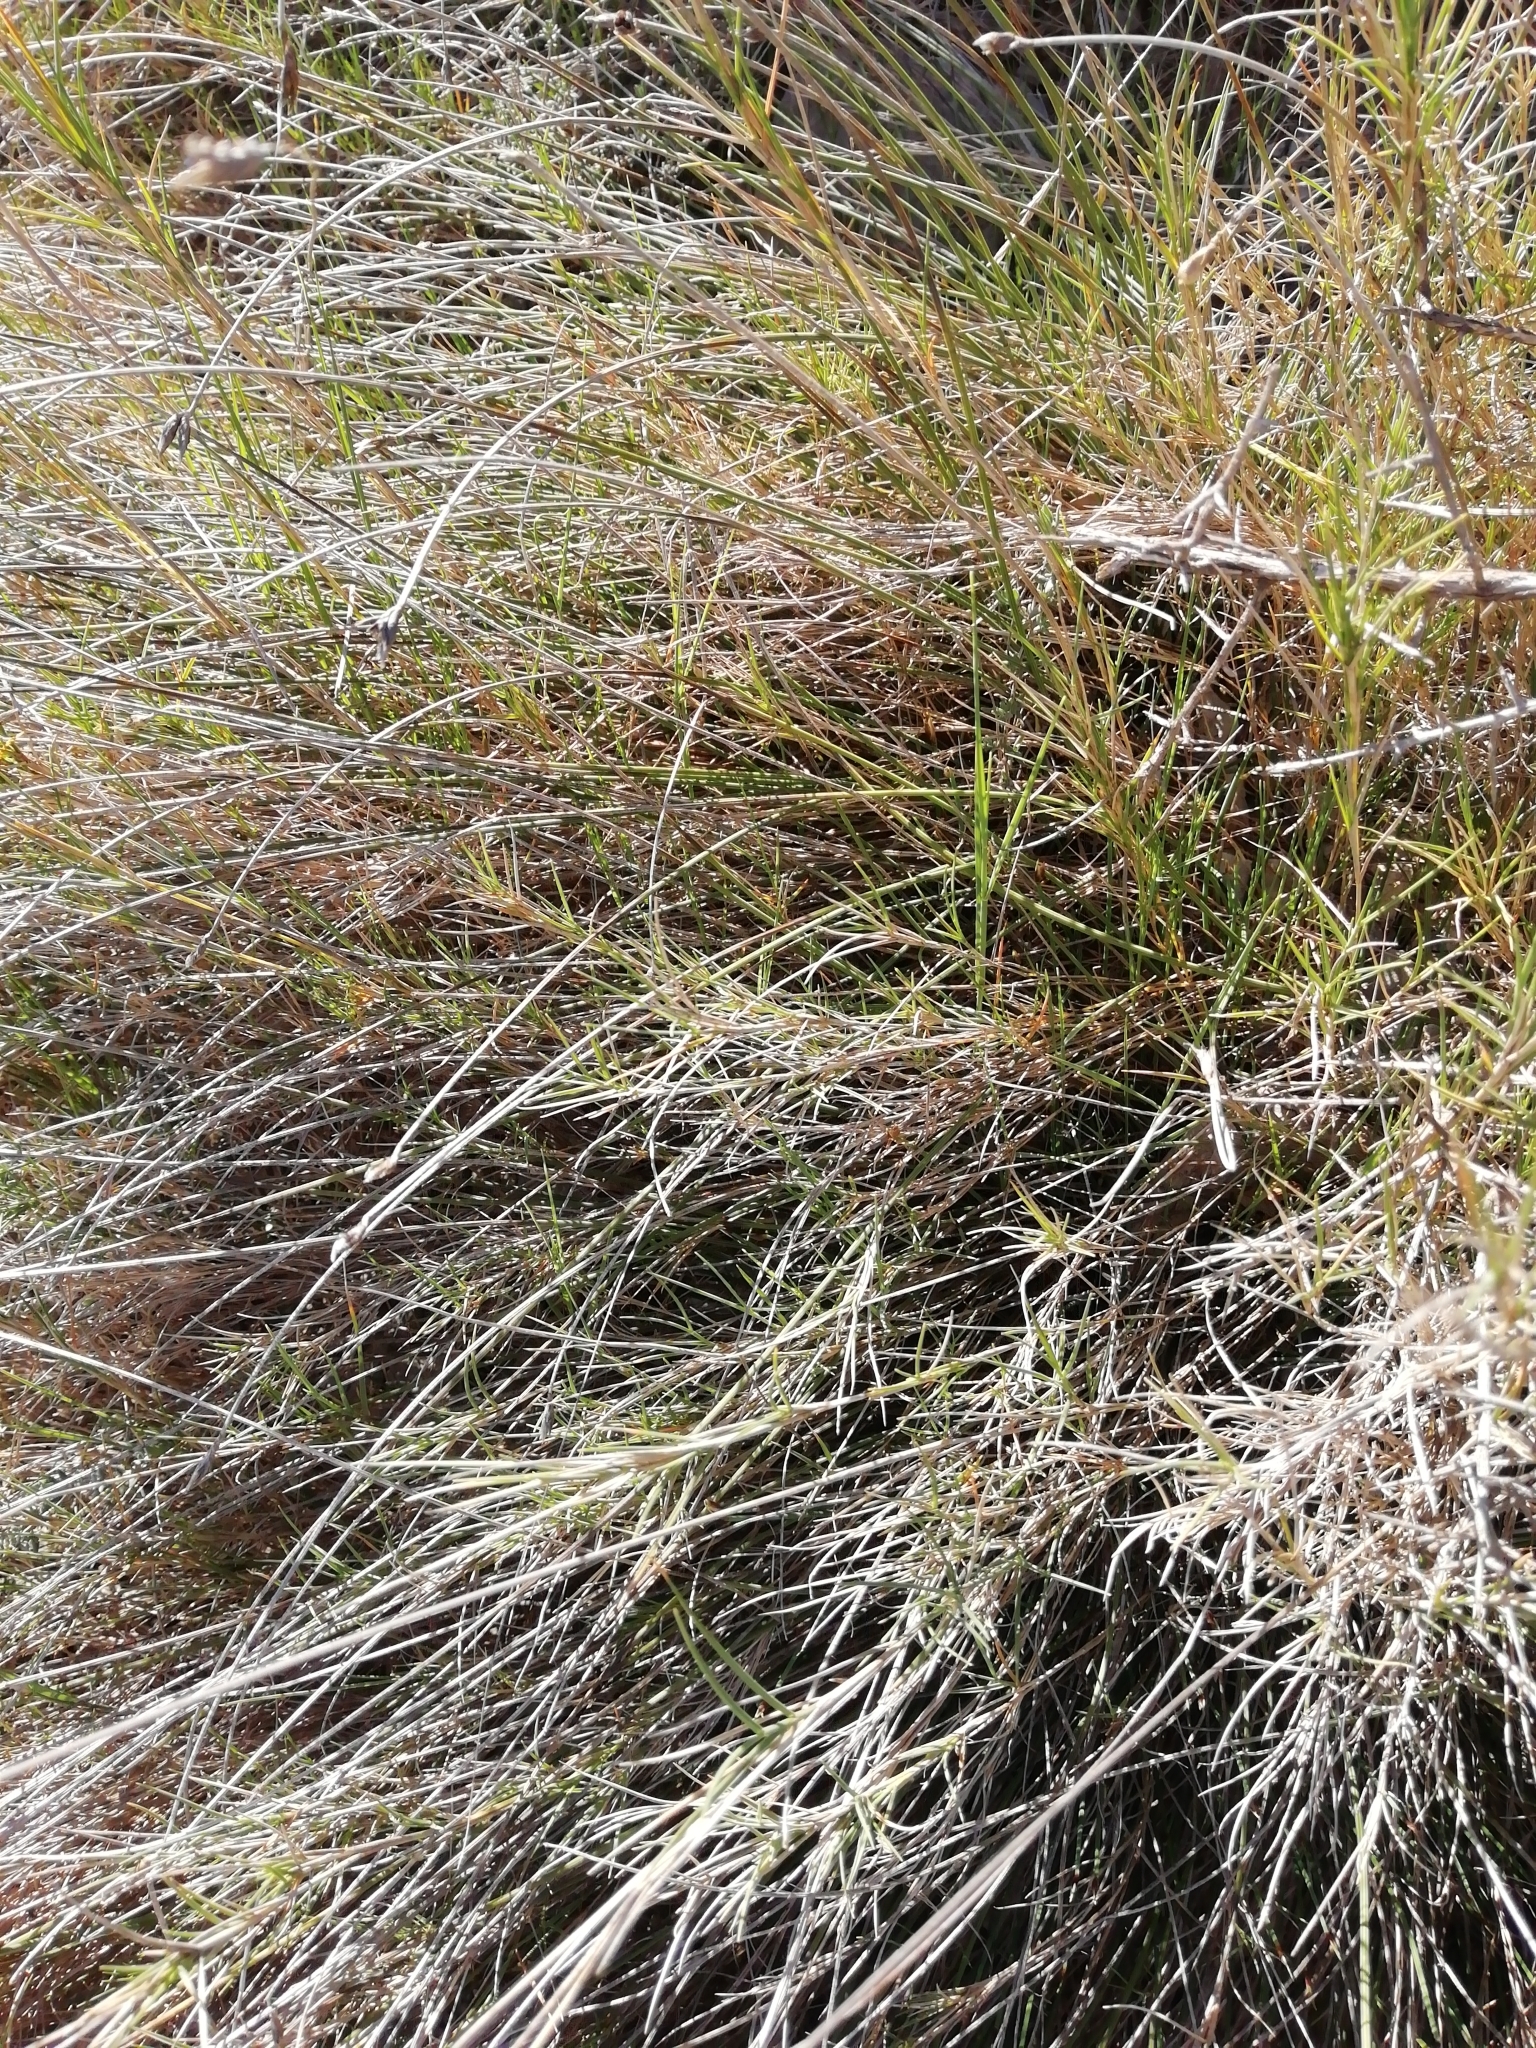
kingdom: Plantae
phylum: Tracheophyta
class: Liliopsida
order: Poales
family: Poaceae
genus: Brachypodium
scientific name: Brachypodium retusum
